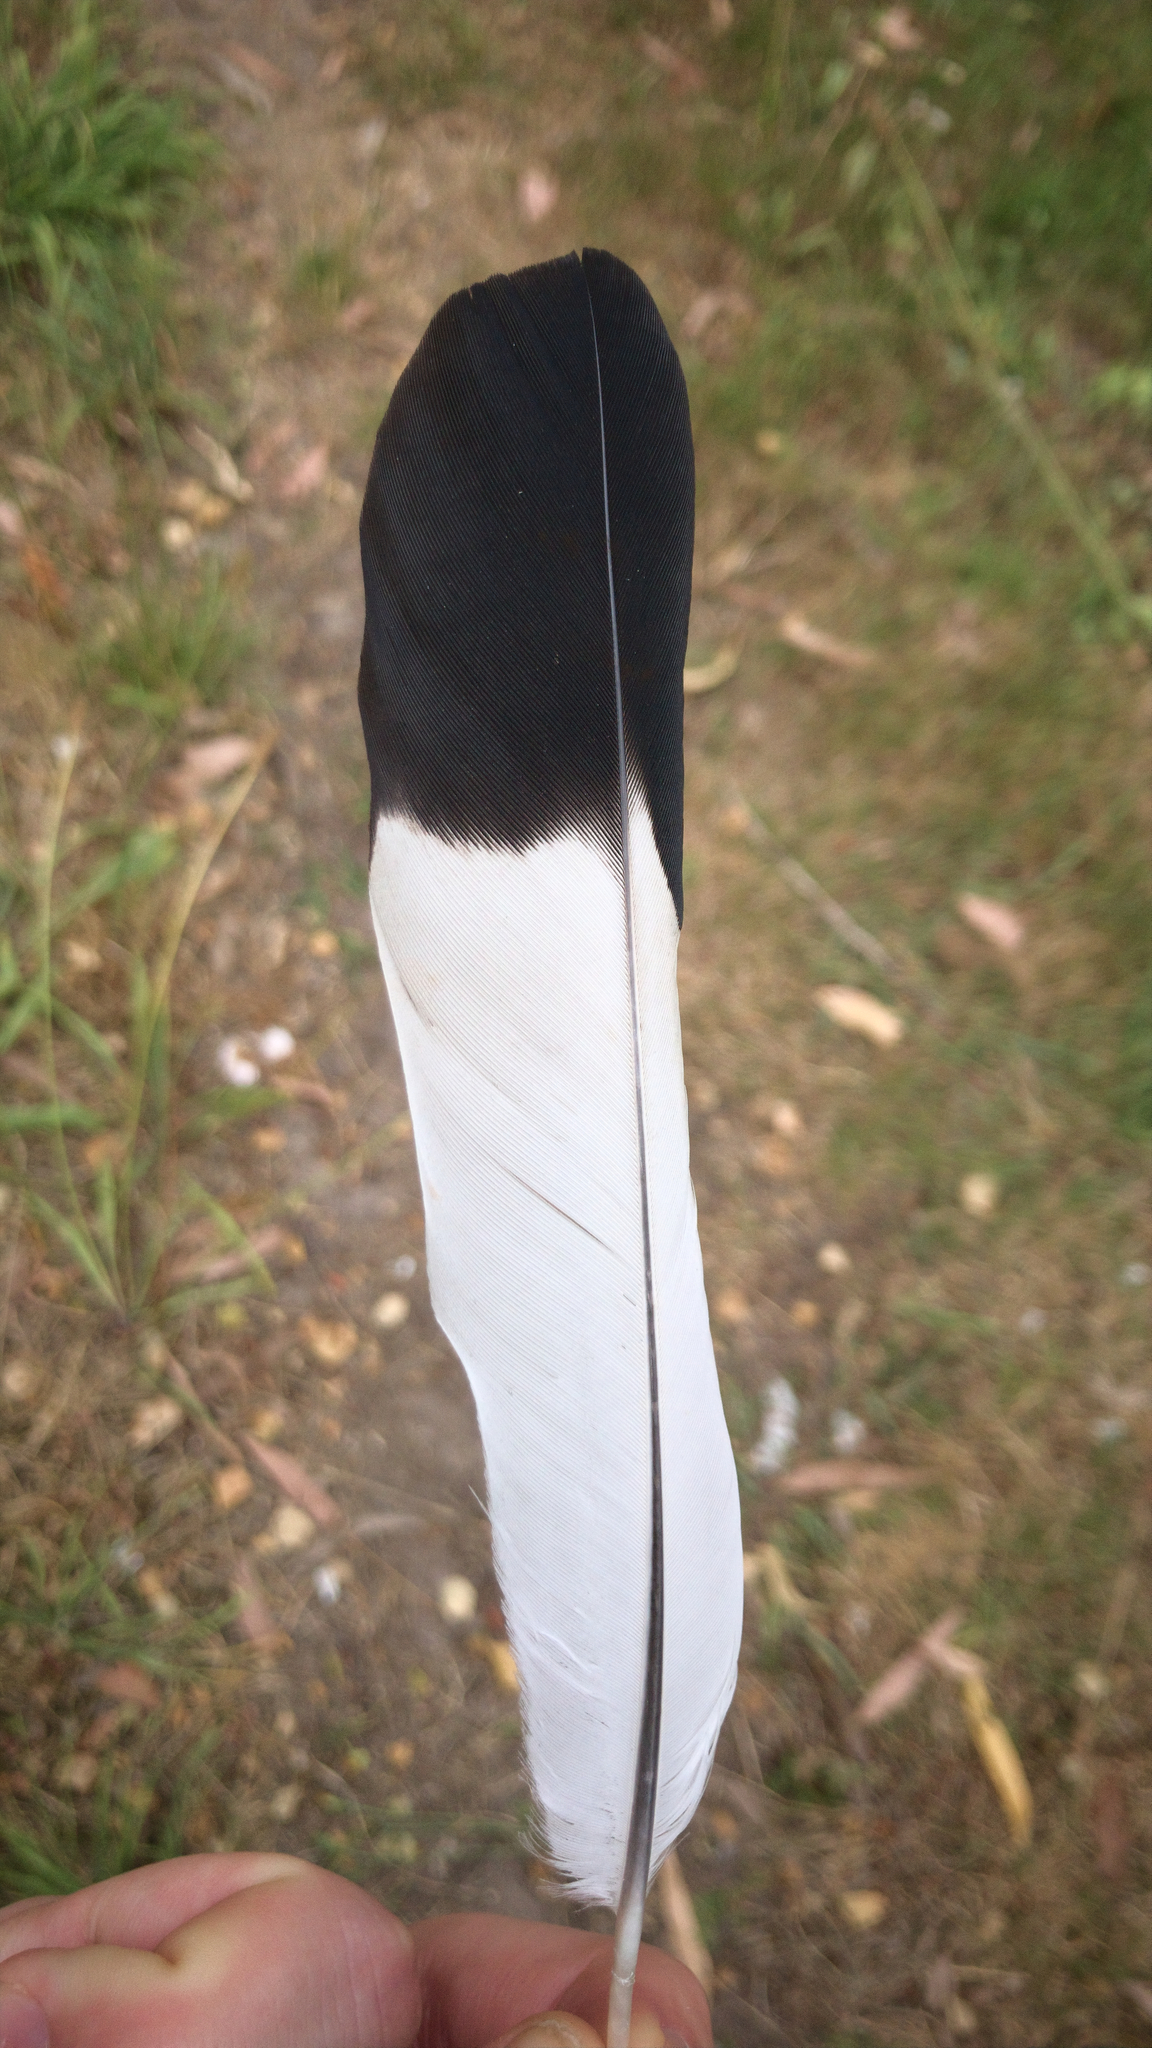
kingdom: Animalia
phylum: Chordata
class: Aves
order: Passeriformes
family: Cracticidae
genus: Gymnorhina
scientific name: Gymnorhina tibicen
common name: Australian magpie
